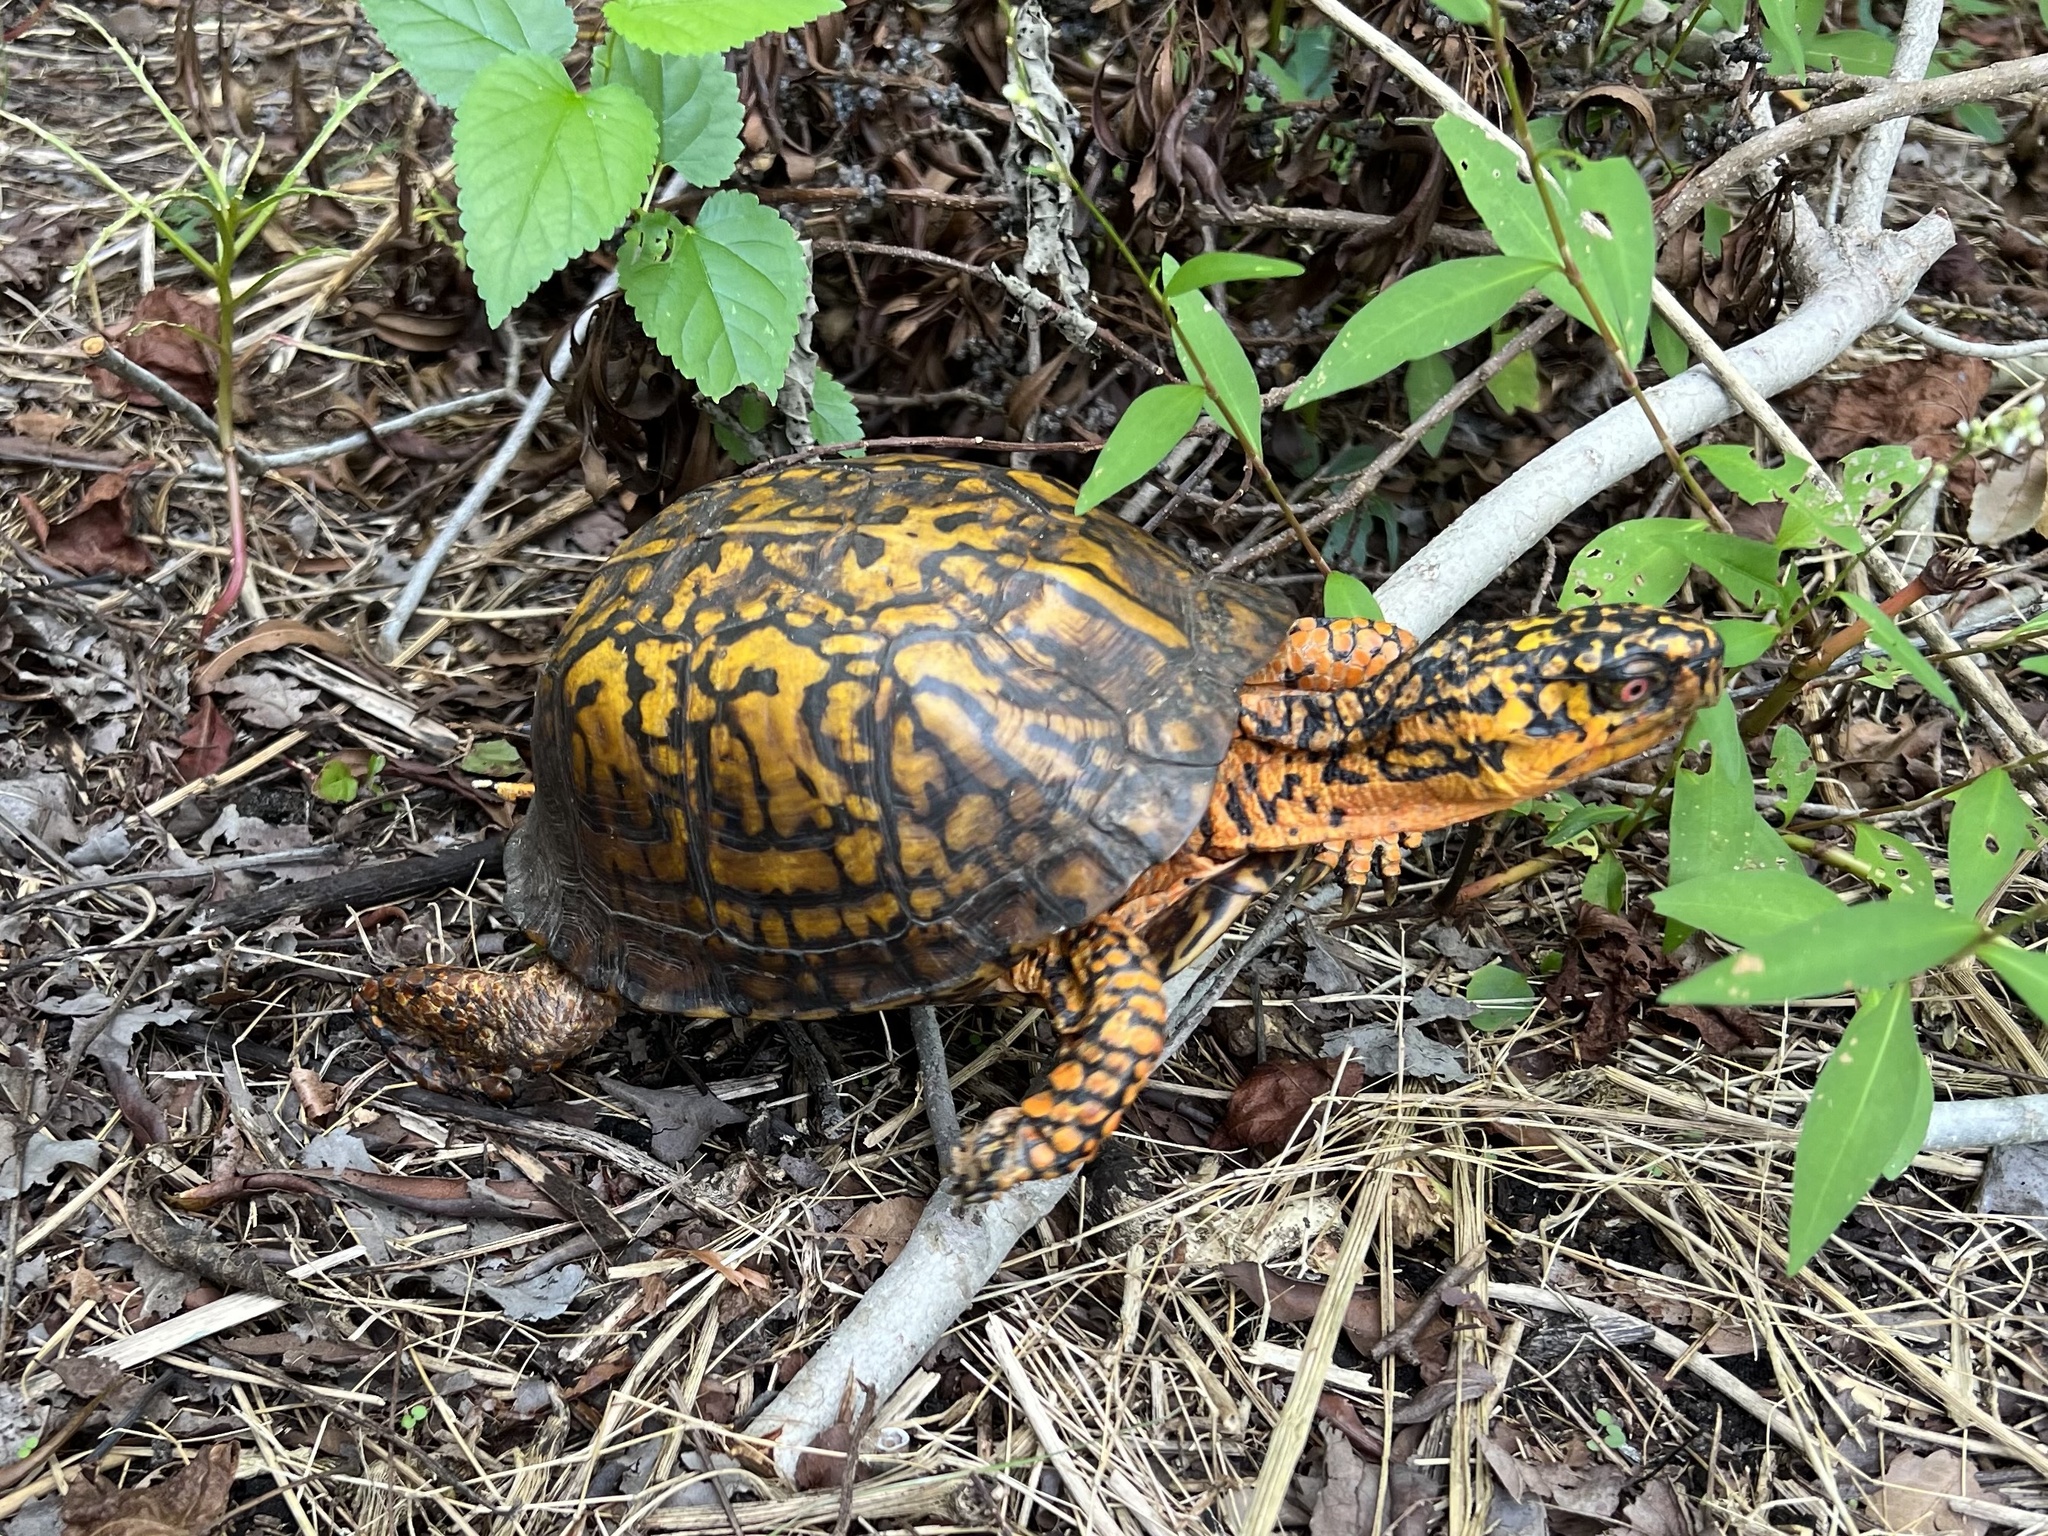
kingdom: Animalia
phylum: Chordata
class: Testudines
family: Emydidae
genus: Terrapene
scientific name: Terrapene carolina
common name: Common box turtle
